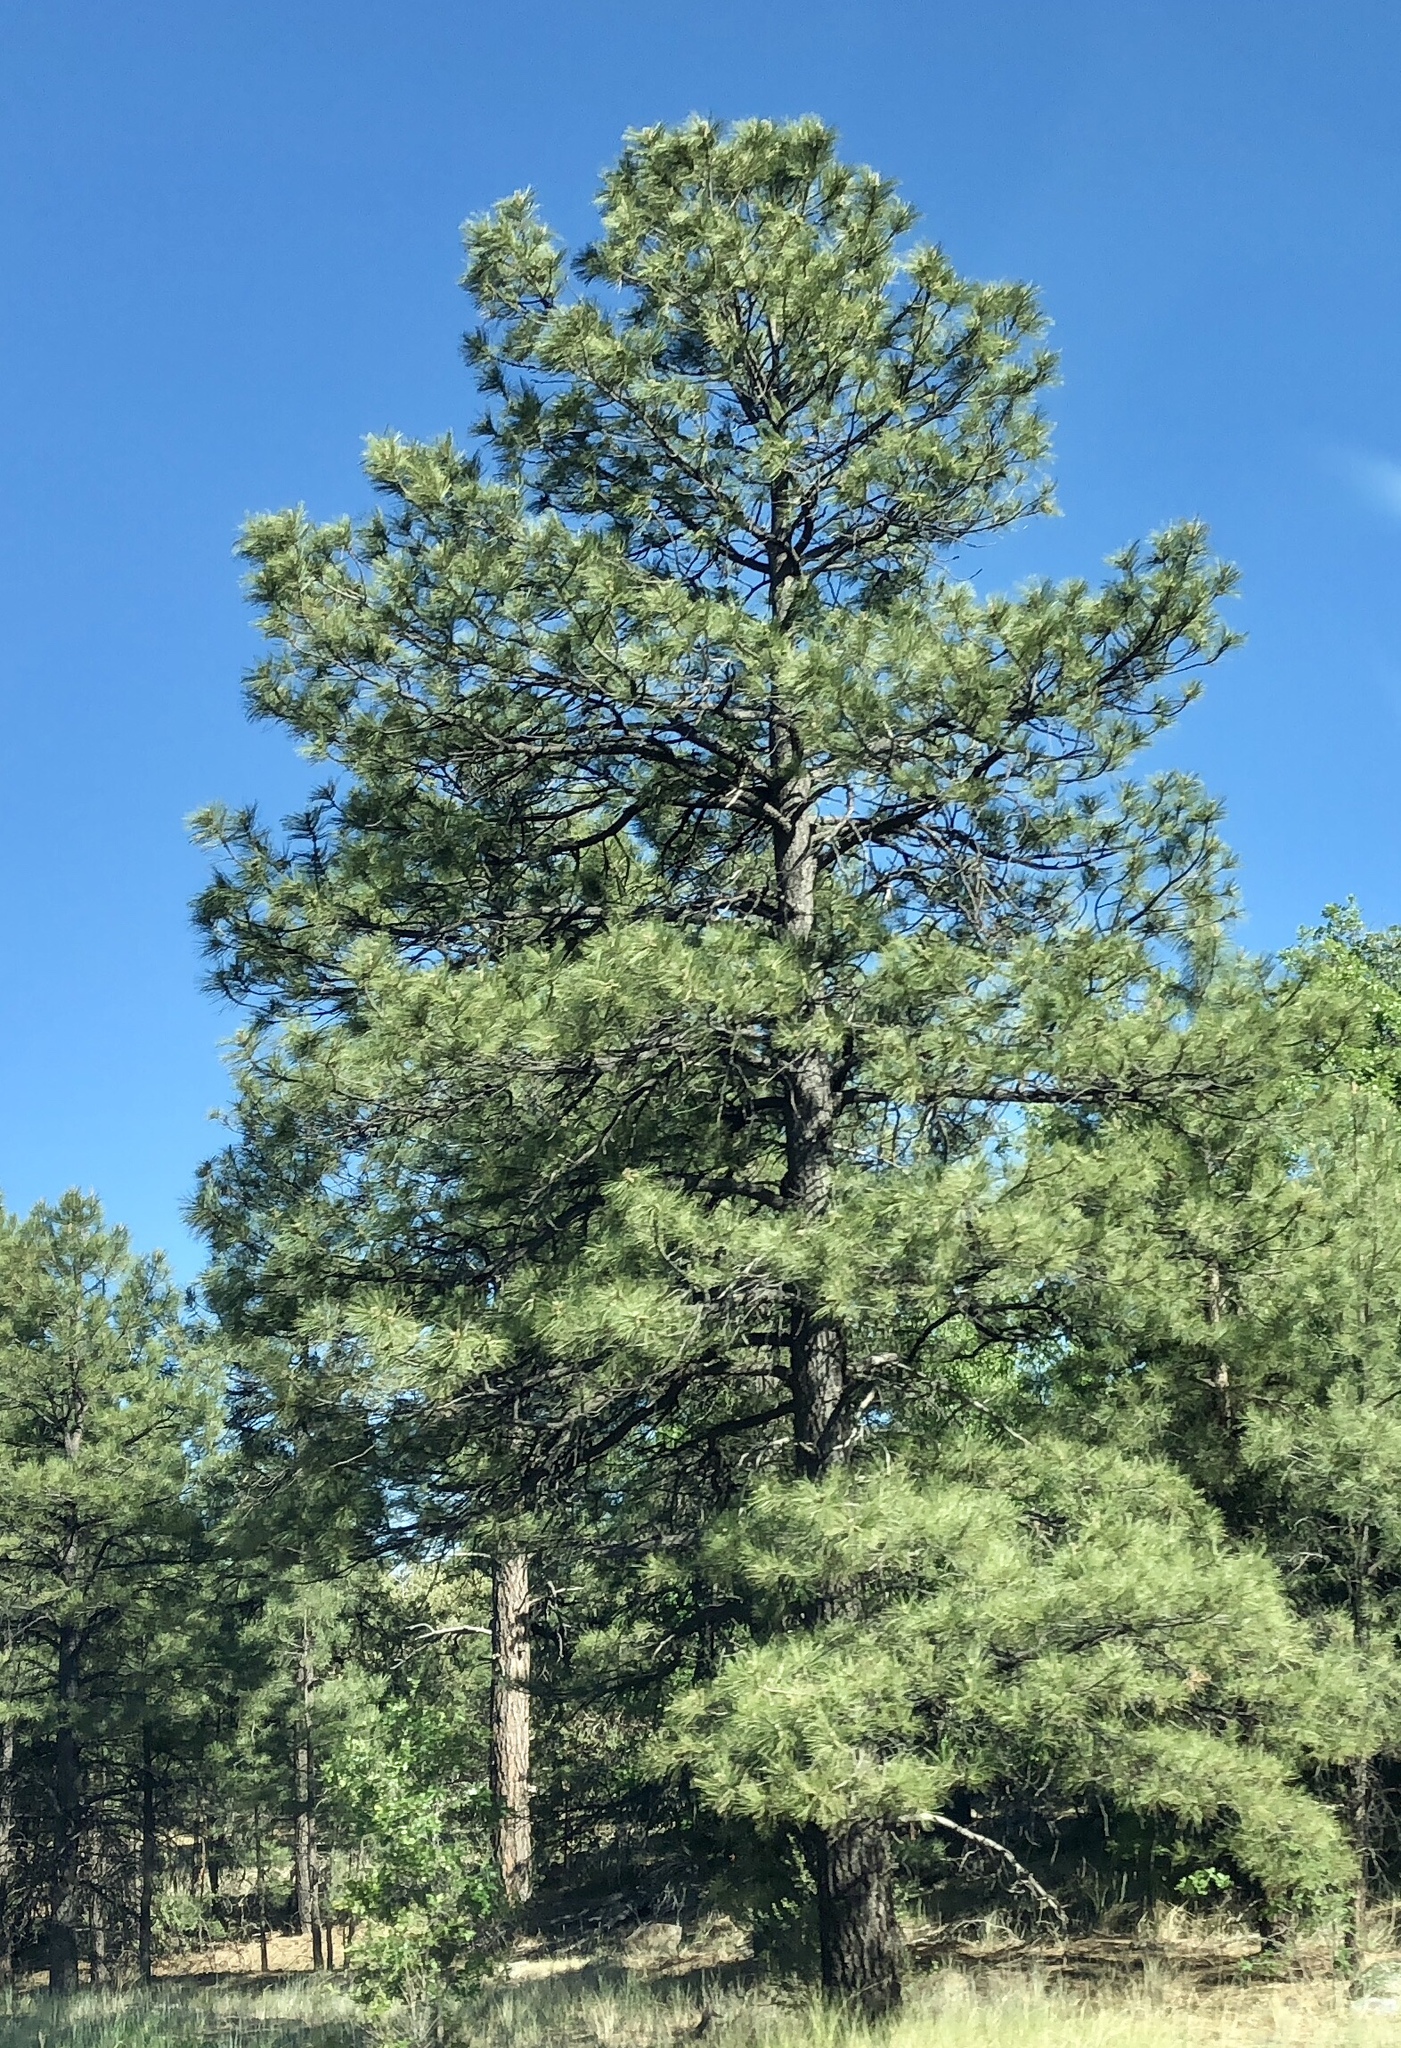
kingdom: Plantae
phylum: Tracheophyta
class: Pinopsida
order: Pinales
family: Pinaceae
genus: Pinus
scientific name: Pinus ponderosa
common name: Western yellow-pine
